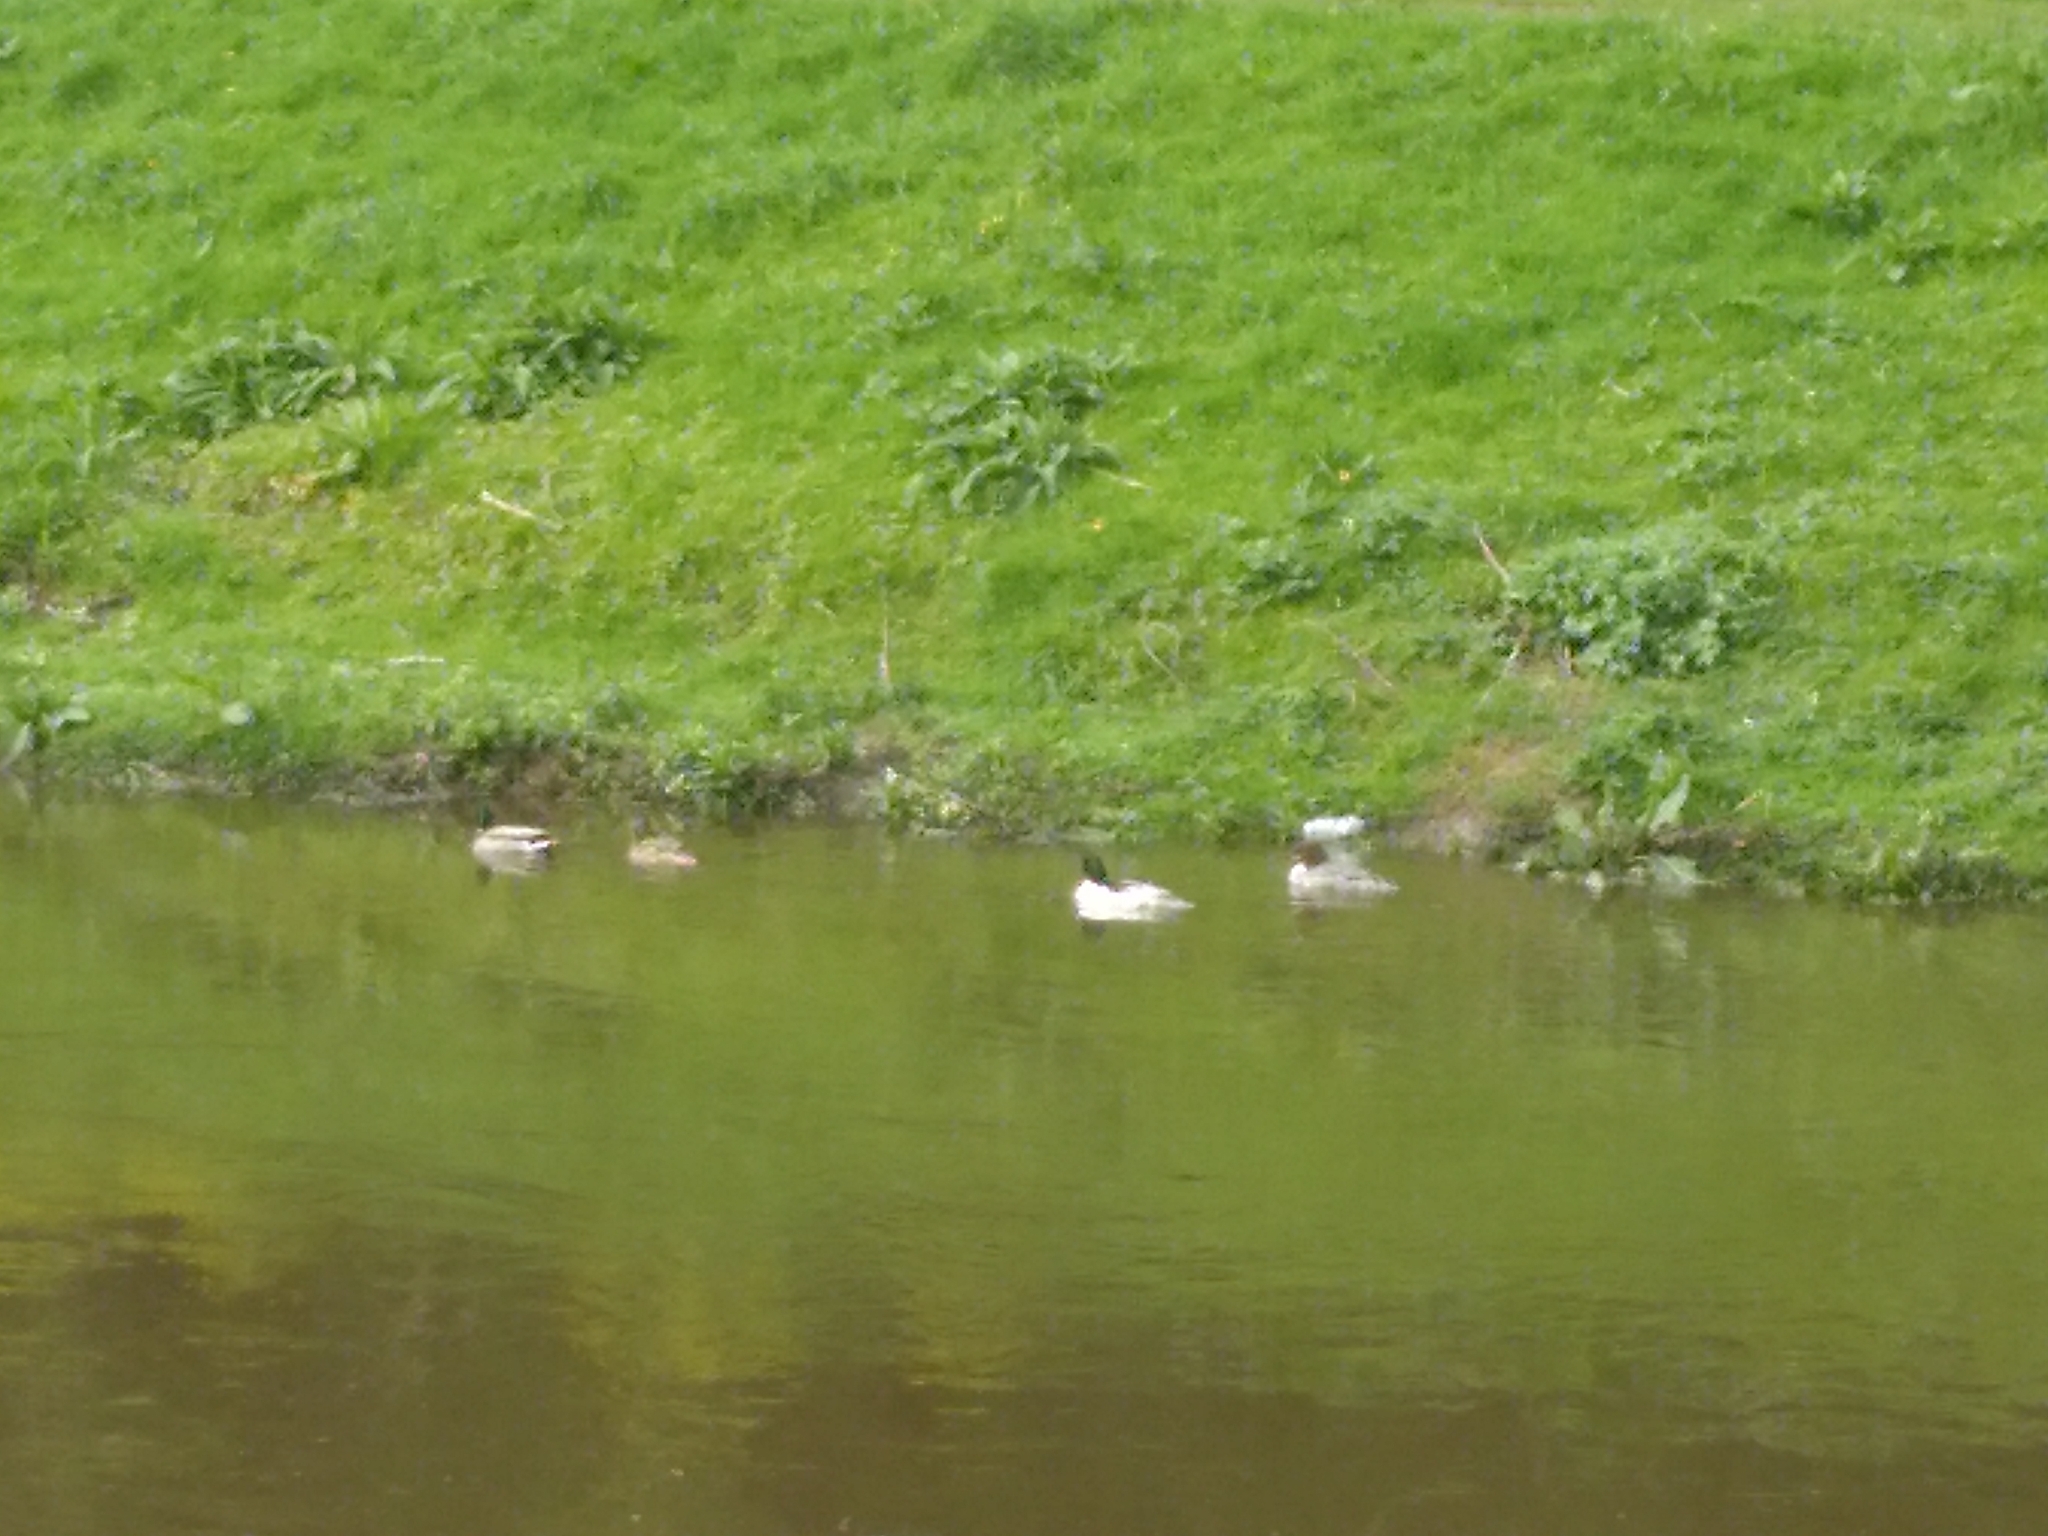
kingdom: Animalia
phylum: Chordata
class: Aves
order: Anseriformes
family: Anatidae
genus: Mergus
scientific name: Mergus merganser
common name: Common merganser
